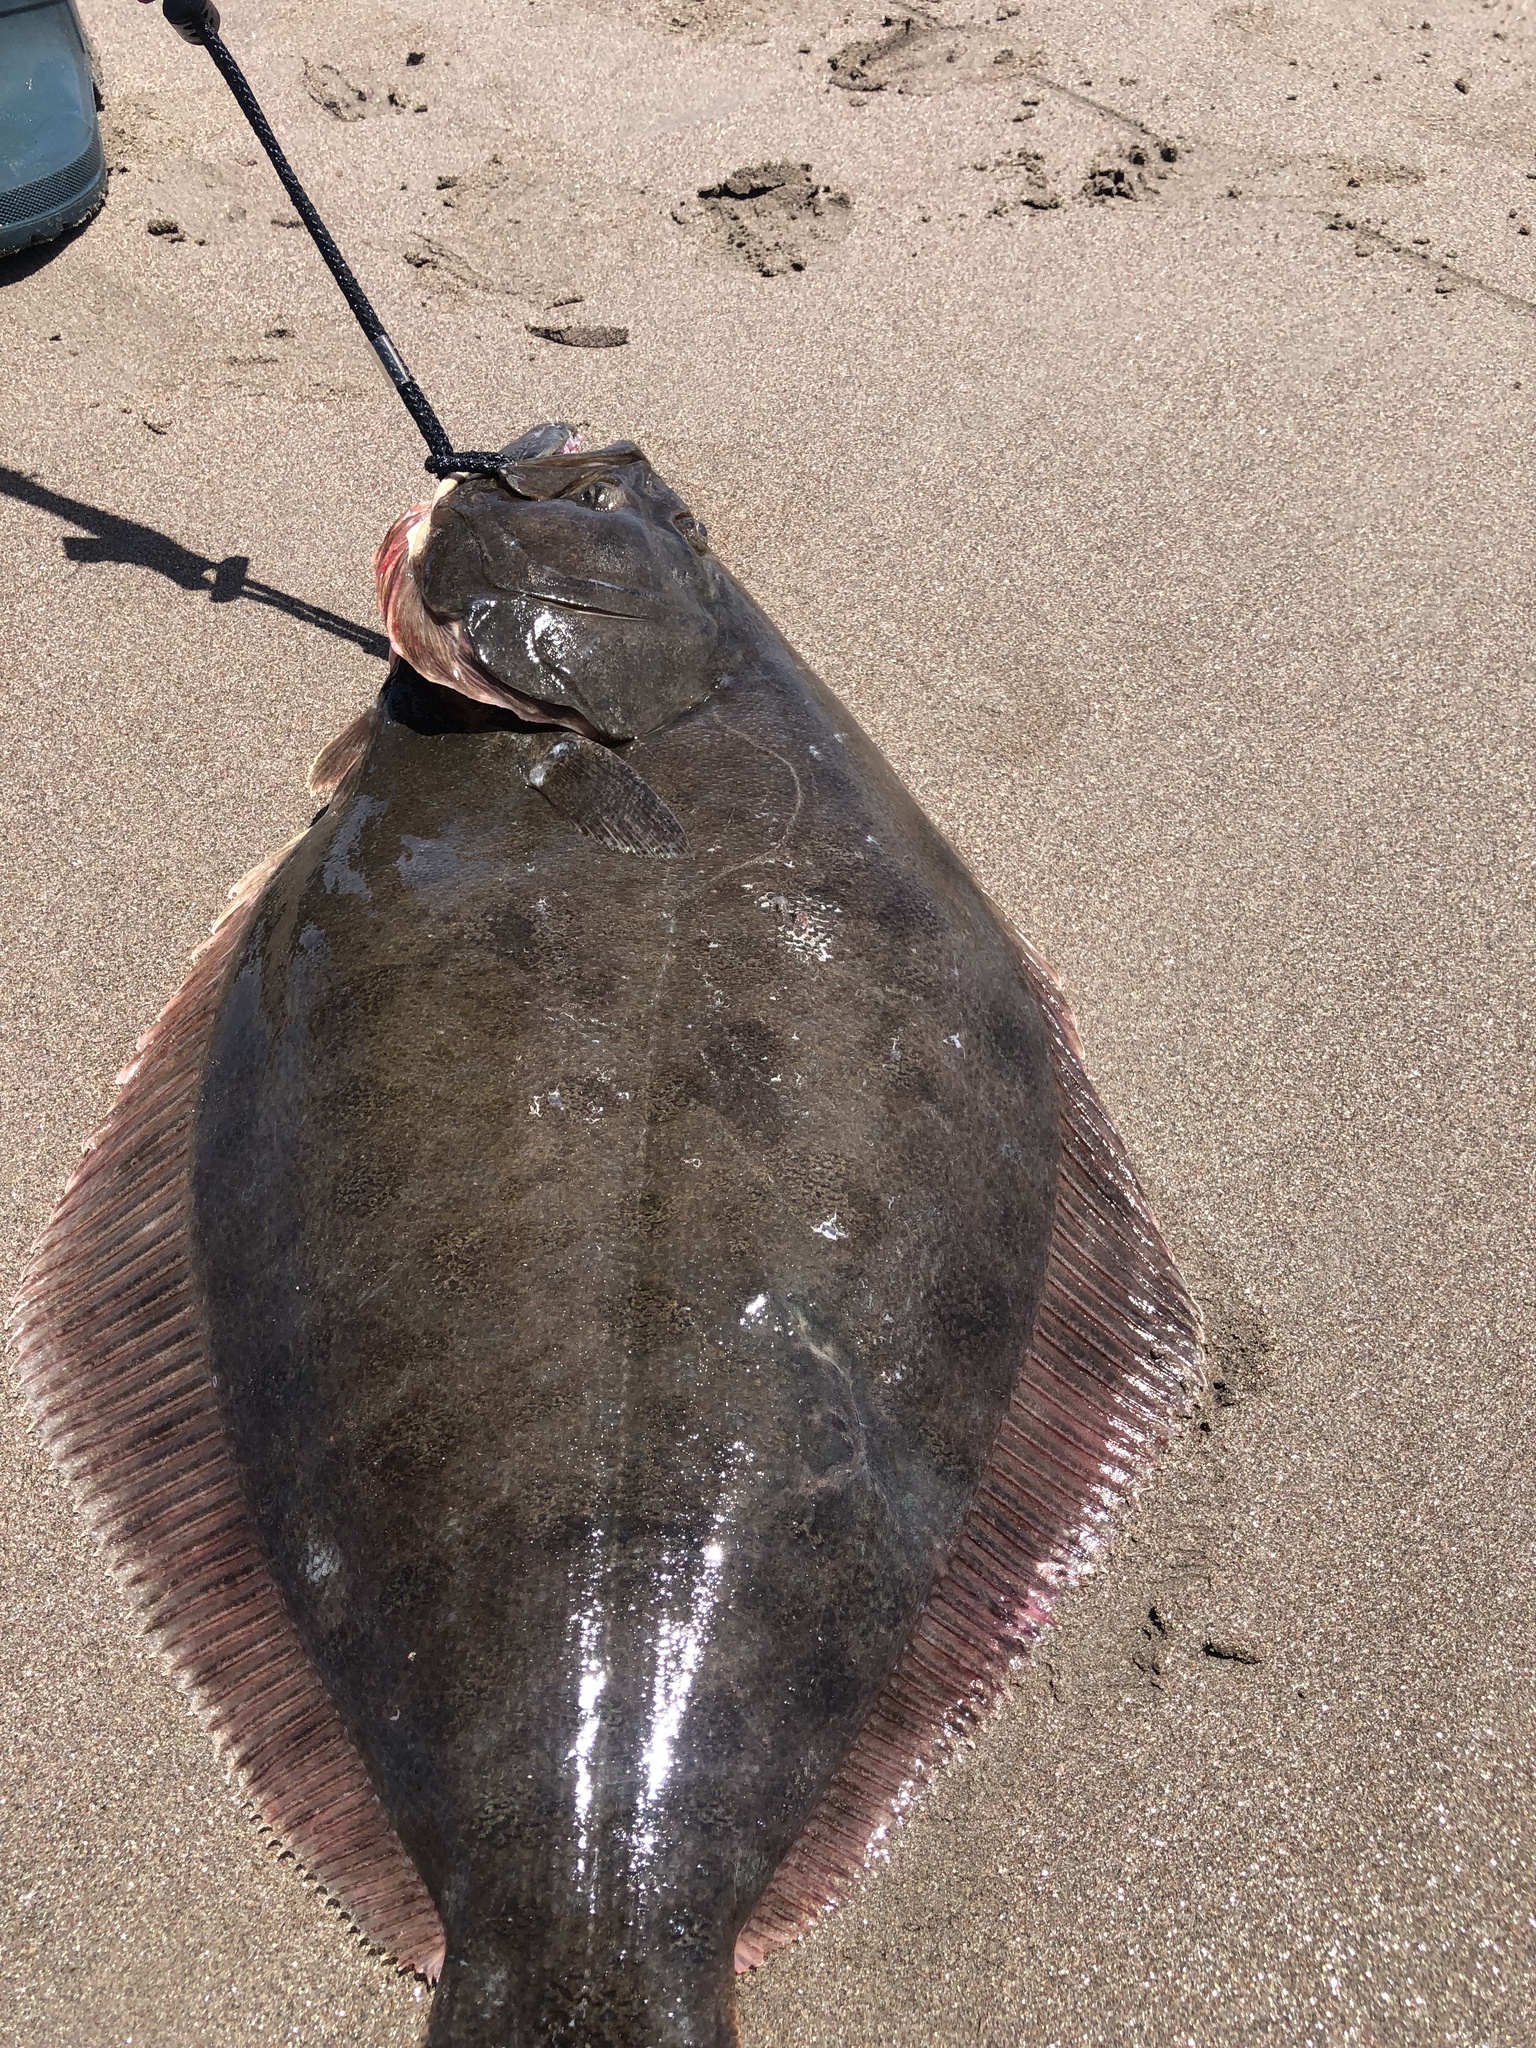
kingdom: Animalia
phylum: Chordata
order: Pleuronectiformes
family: Paralichthyidae
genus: Paralichthys
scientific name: Paralichthys adspersus
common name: Fine flounder
